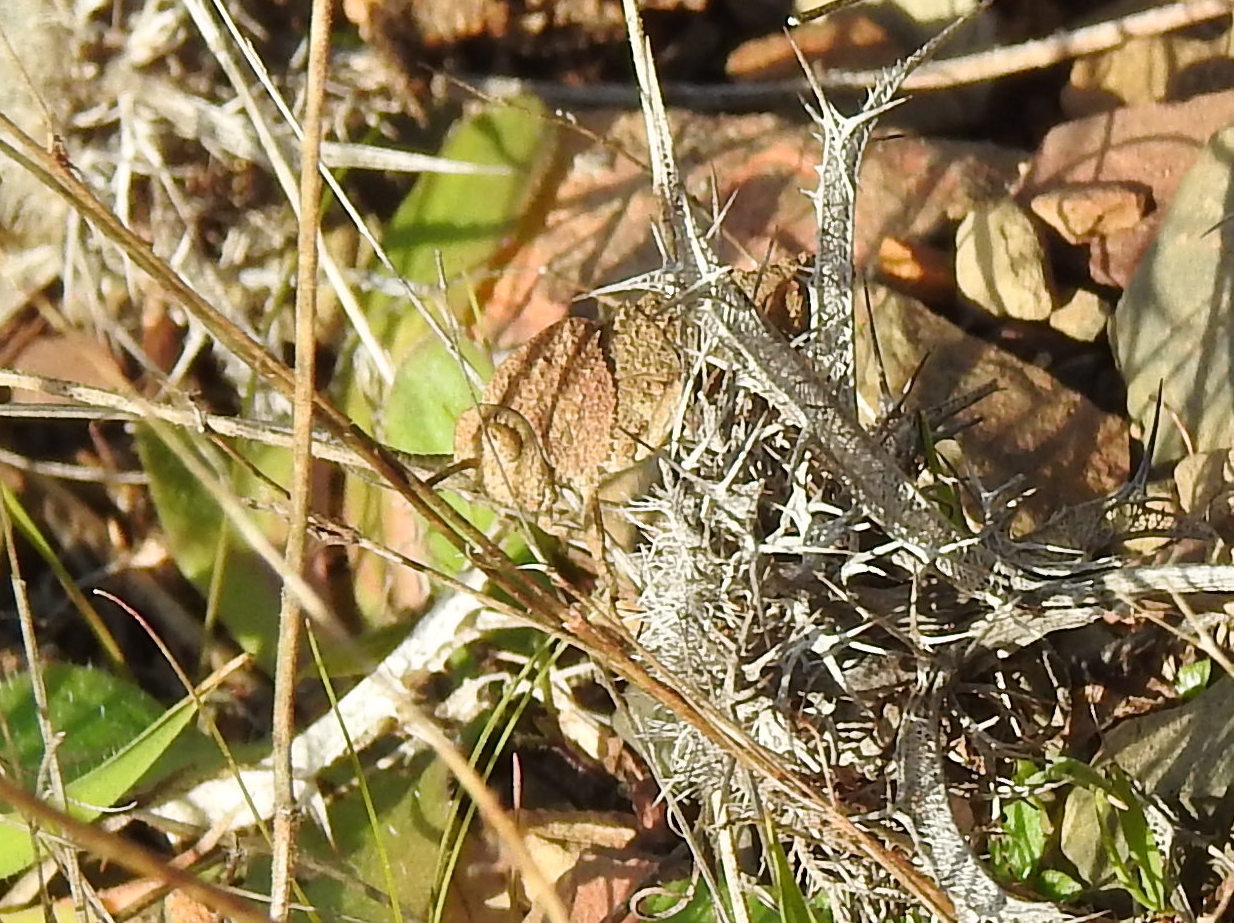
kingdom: Animalia
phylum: Arthropoda
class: Insecta
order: Orthoptera
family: Pamphagidae
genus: Ocnerodes
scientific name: Ocnerodes fallaciosus
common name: Misleading stone grasshopper
